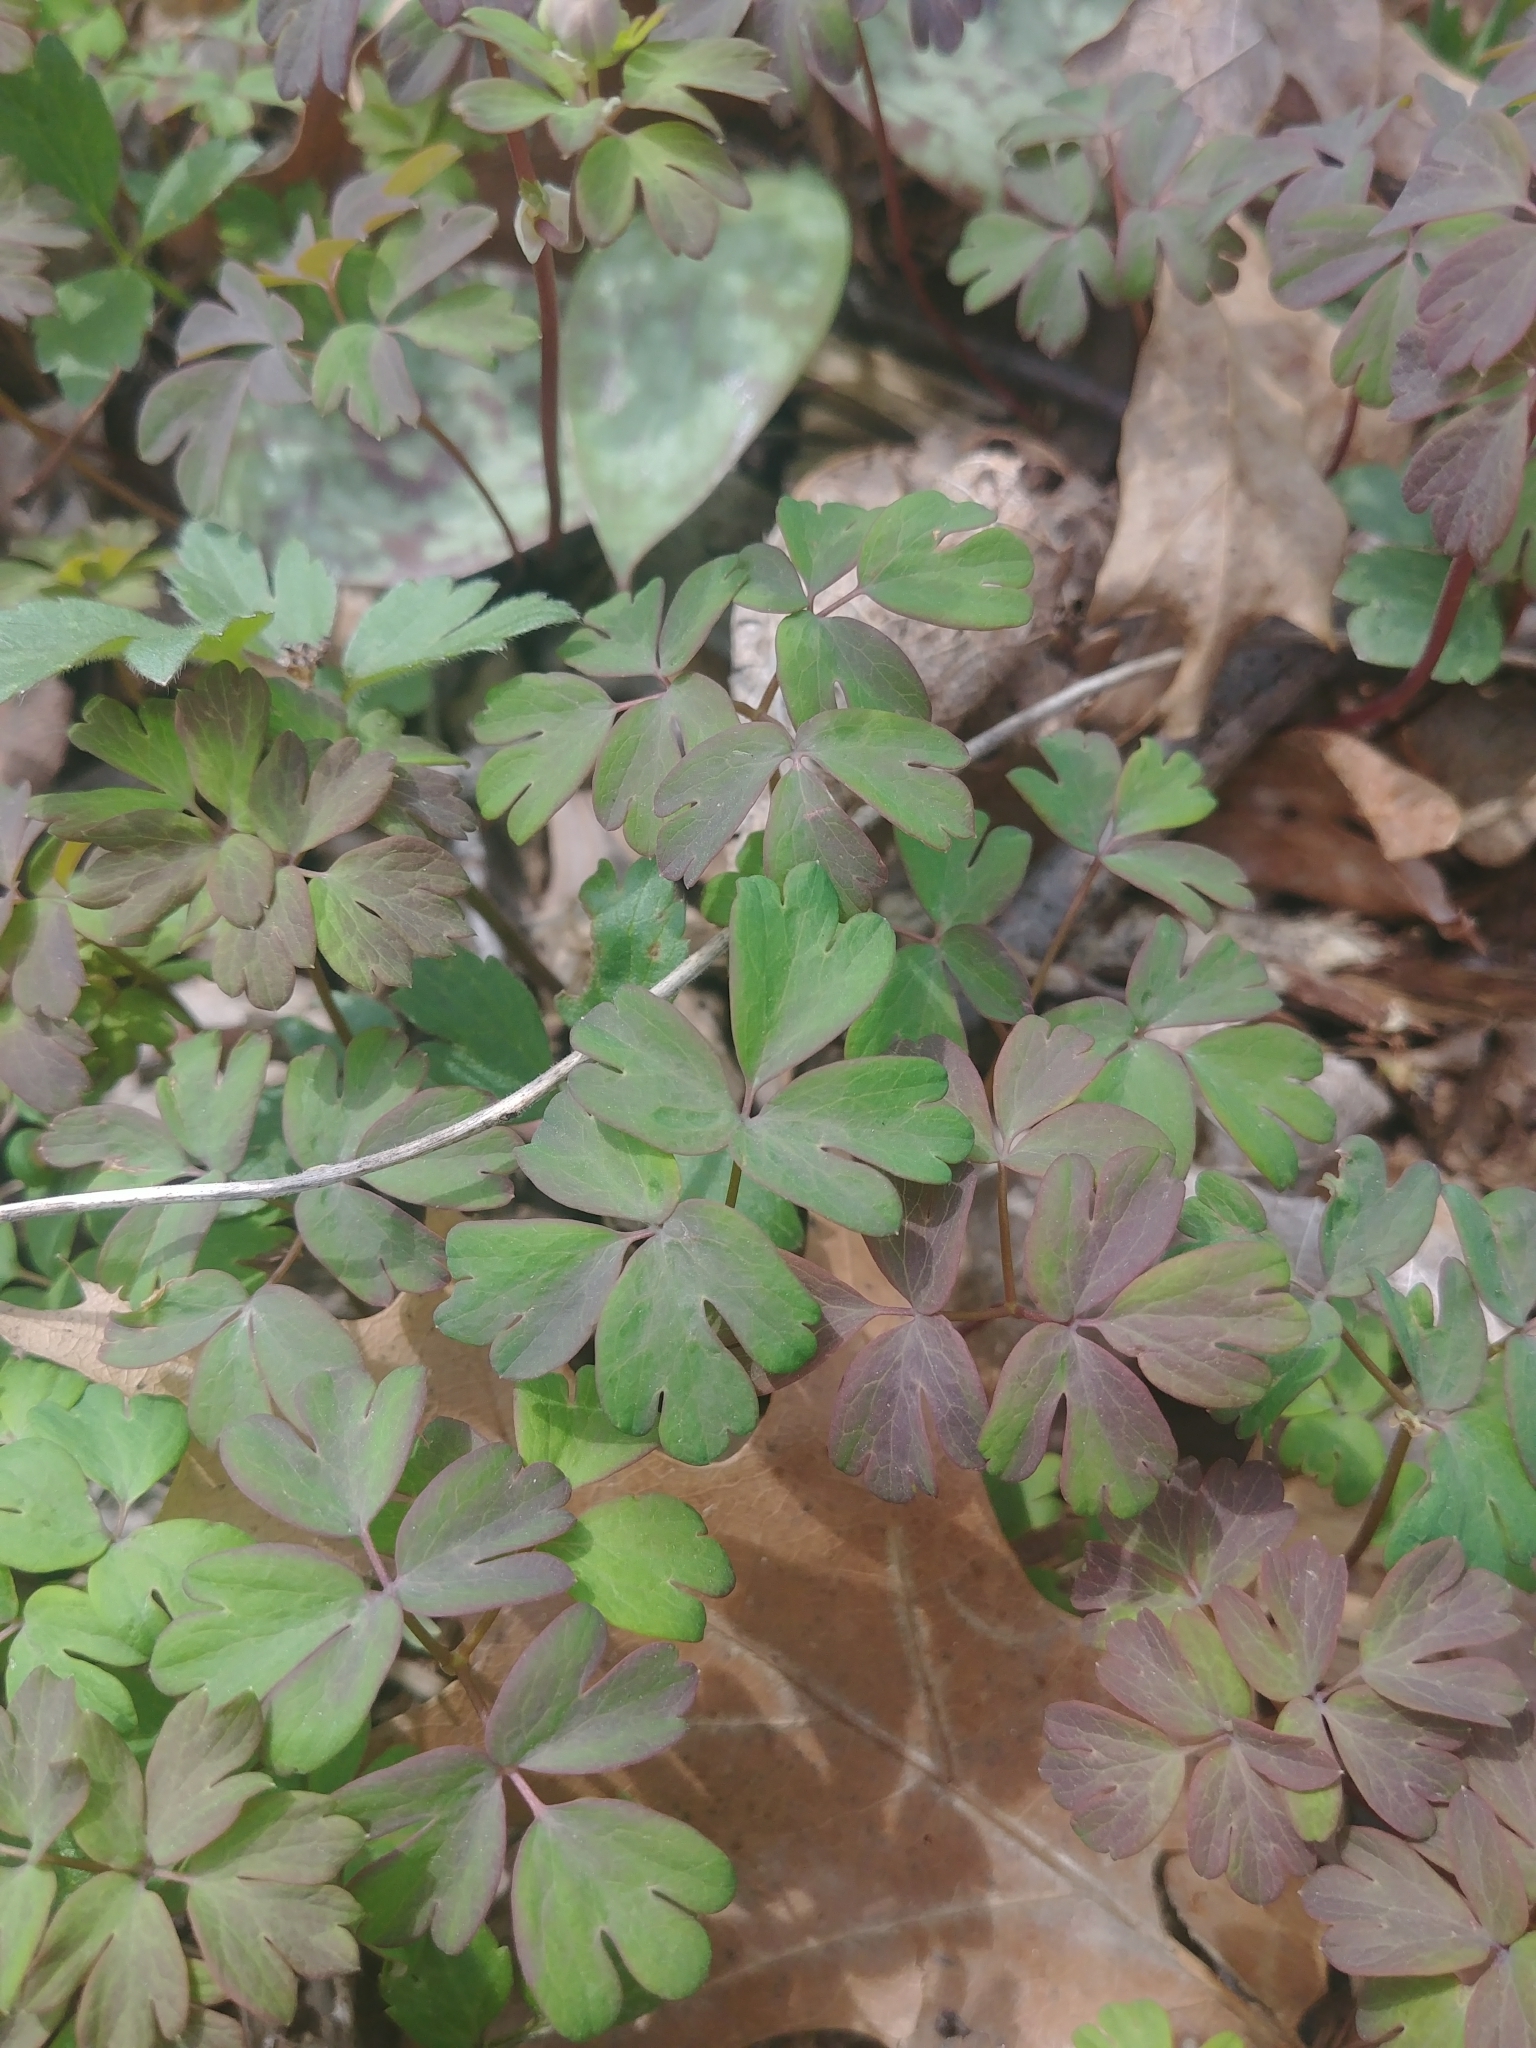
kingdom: Plantae
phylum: Tracheophyta
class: Magnoliopsida
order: Ranunculales
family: Ranunculaceae
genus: Enemion
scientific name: Enemion biternatum
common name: Eastern false rue-anemone
